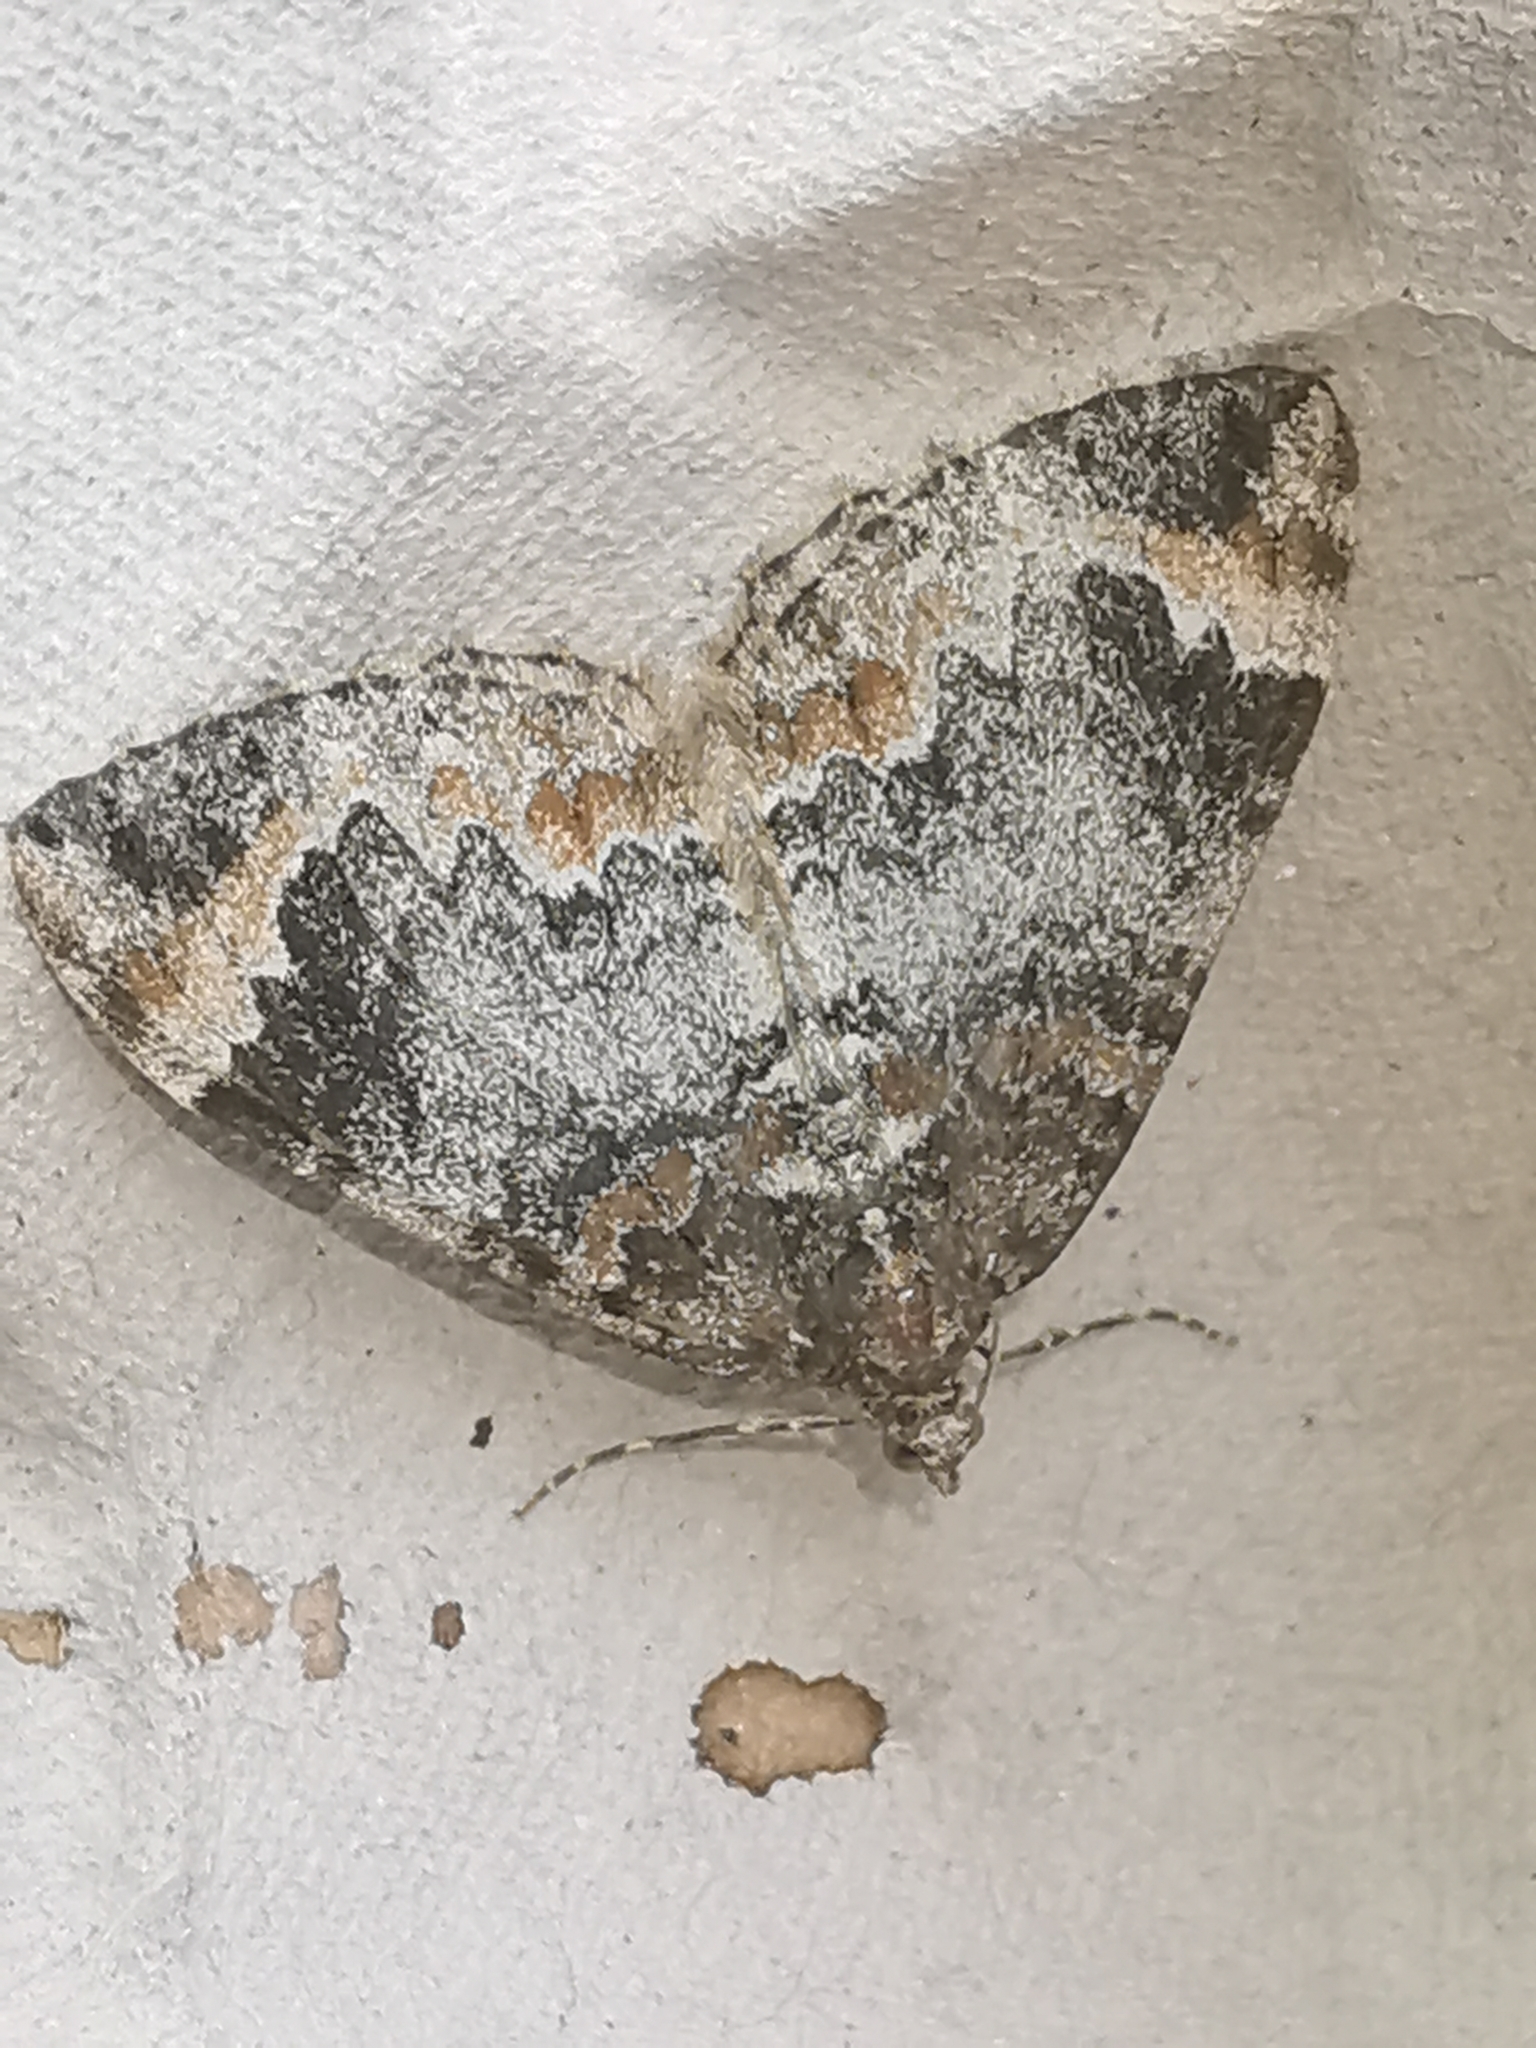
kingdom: Animalia
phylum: Arthropoda
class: Insecta
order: Lepidoptera
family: Geometridae
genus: Dysstroma
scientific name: Dysstroma truncata
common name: Common marbled carpet
